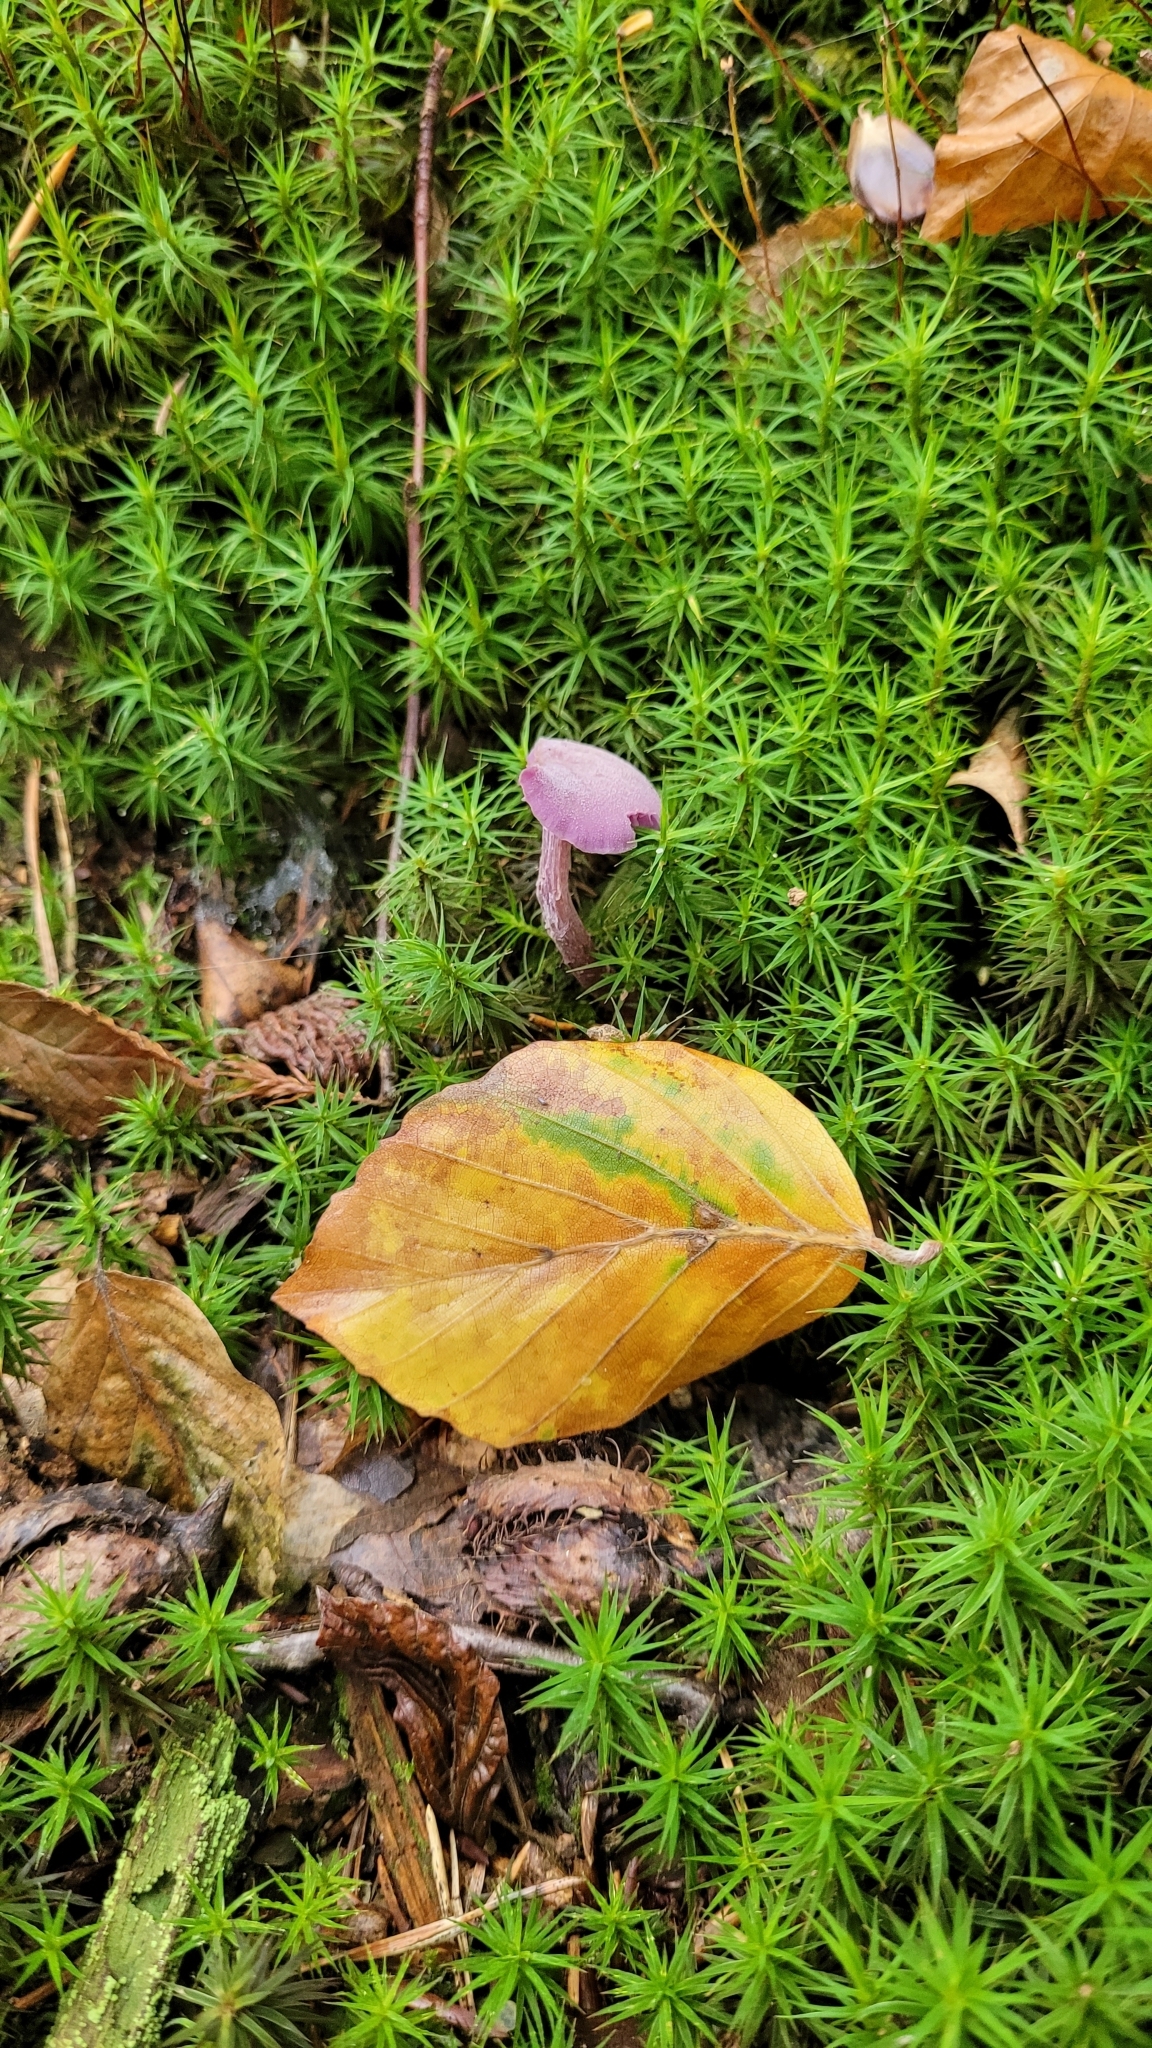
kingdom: Fungi
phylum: Basidiomycota
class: Agaricomycetes
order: Agaricales
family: Hydnangiaceae
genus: Laccaria
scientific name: Laccaria amethystina
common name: Amethyst deceiver
